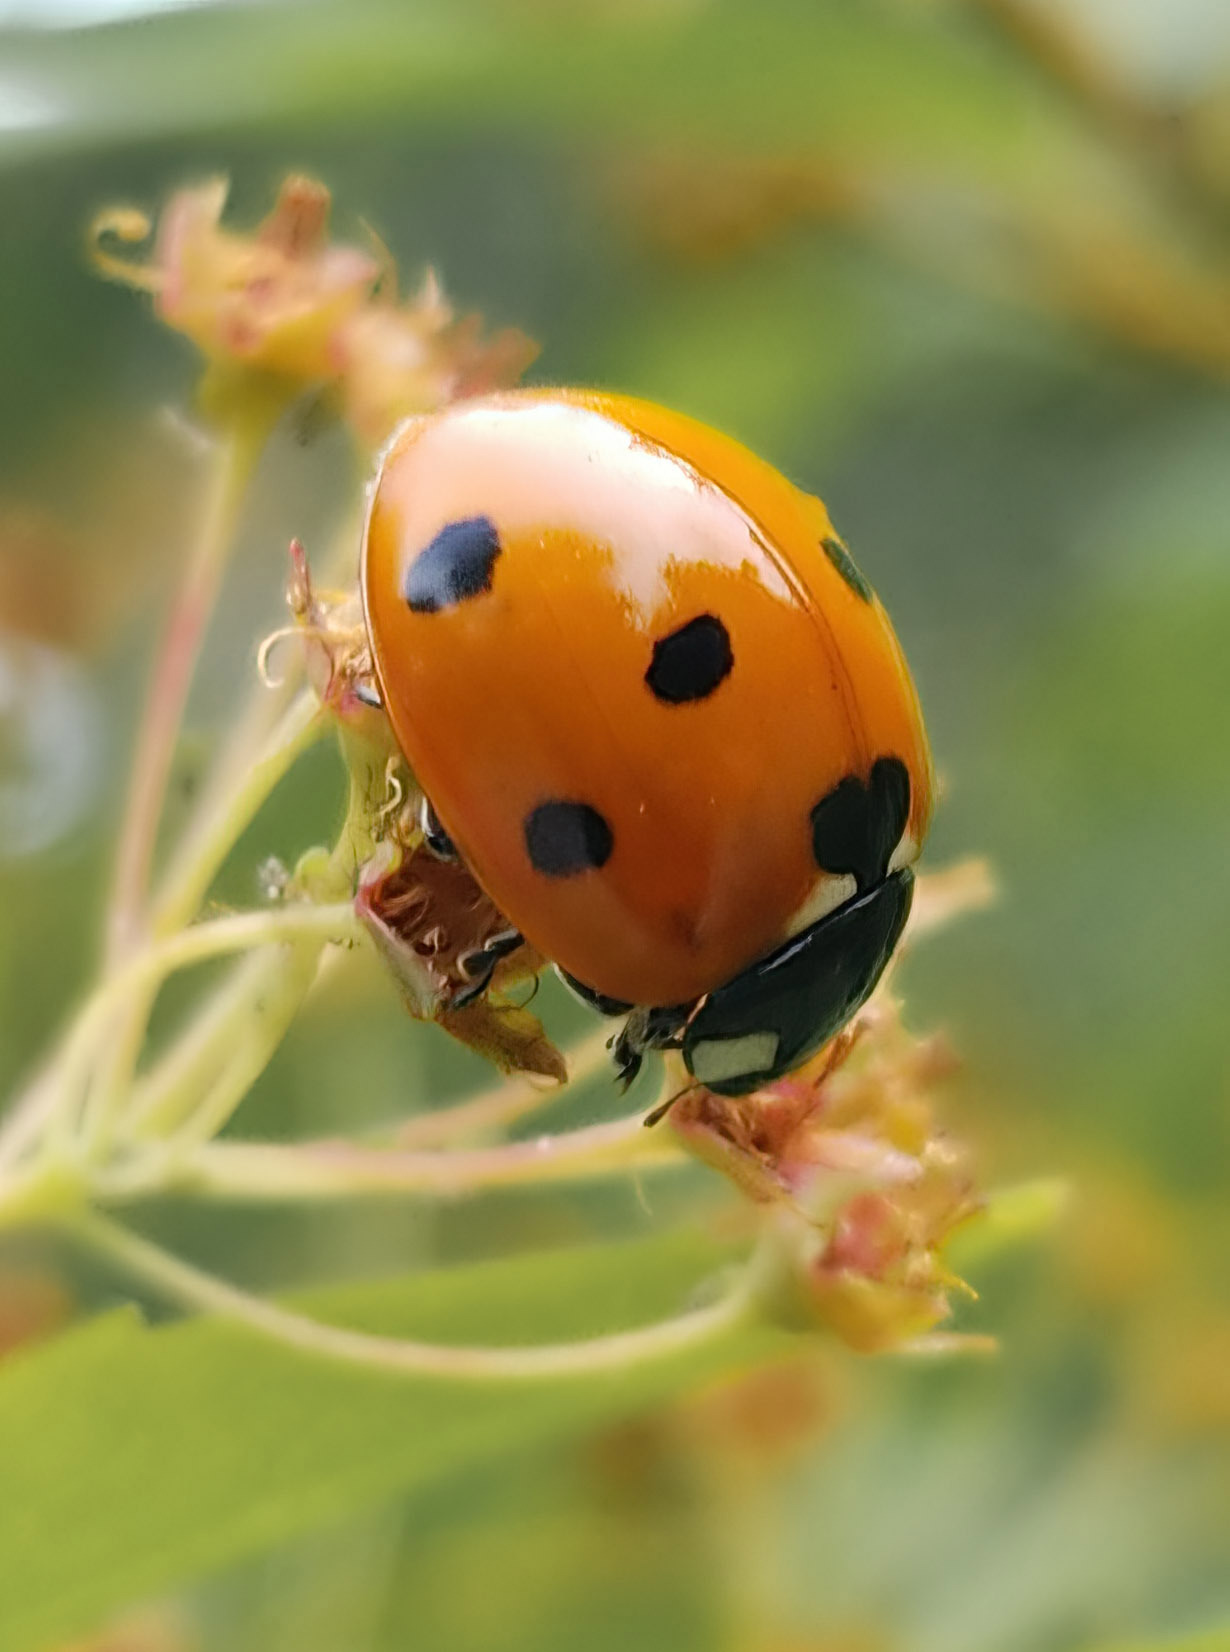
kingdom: Animalia
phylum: Arthropoda
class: Insecta
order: Coleoptera
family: Coccinellidae
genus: Coccinella
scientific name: Coccinella septempunctata
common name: Sevenspotted lady beetle
